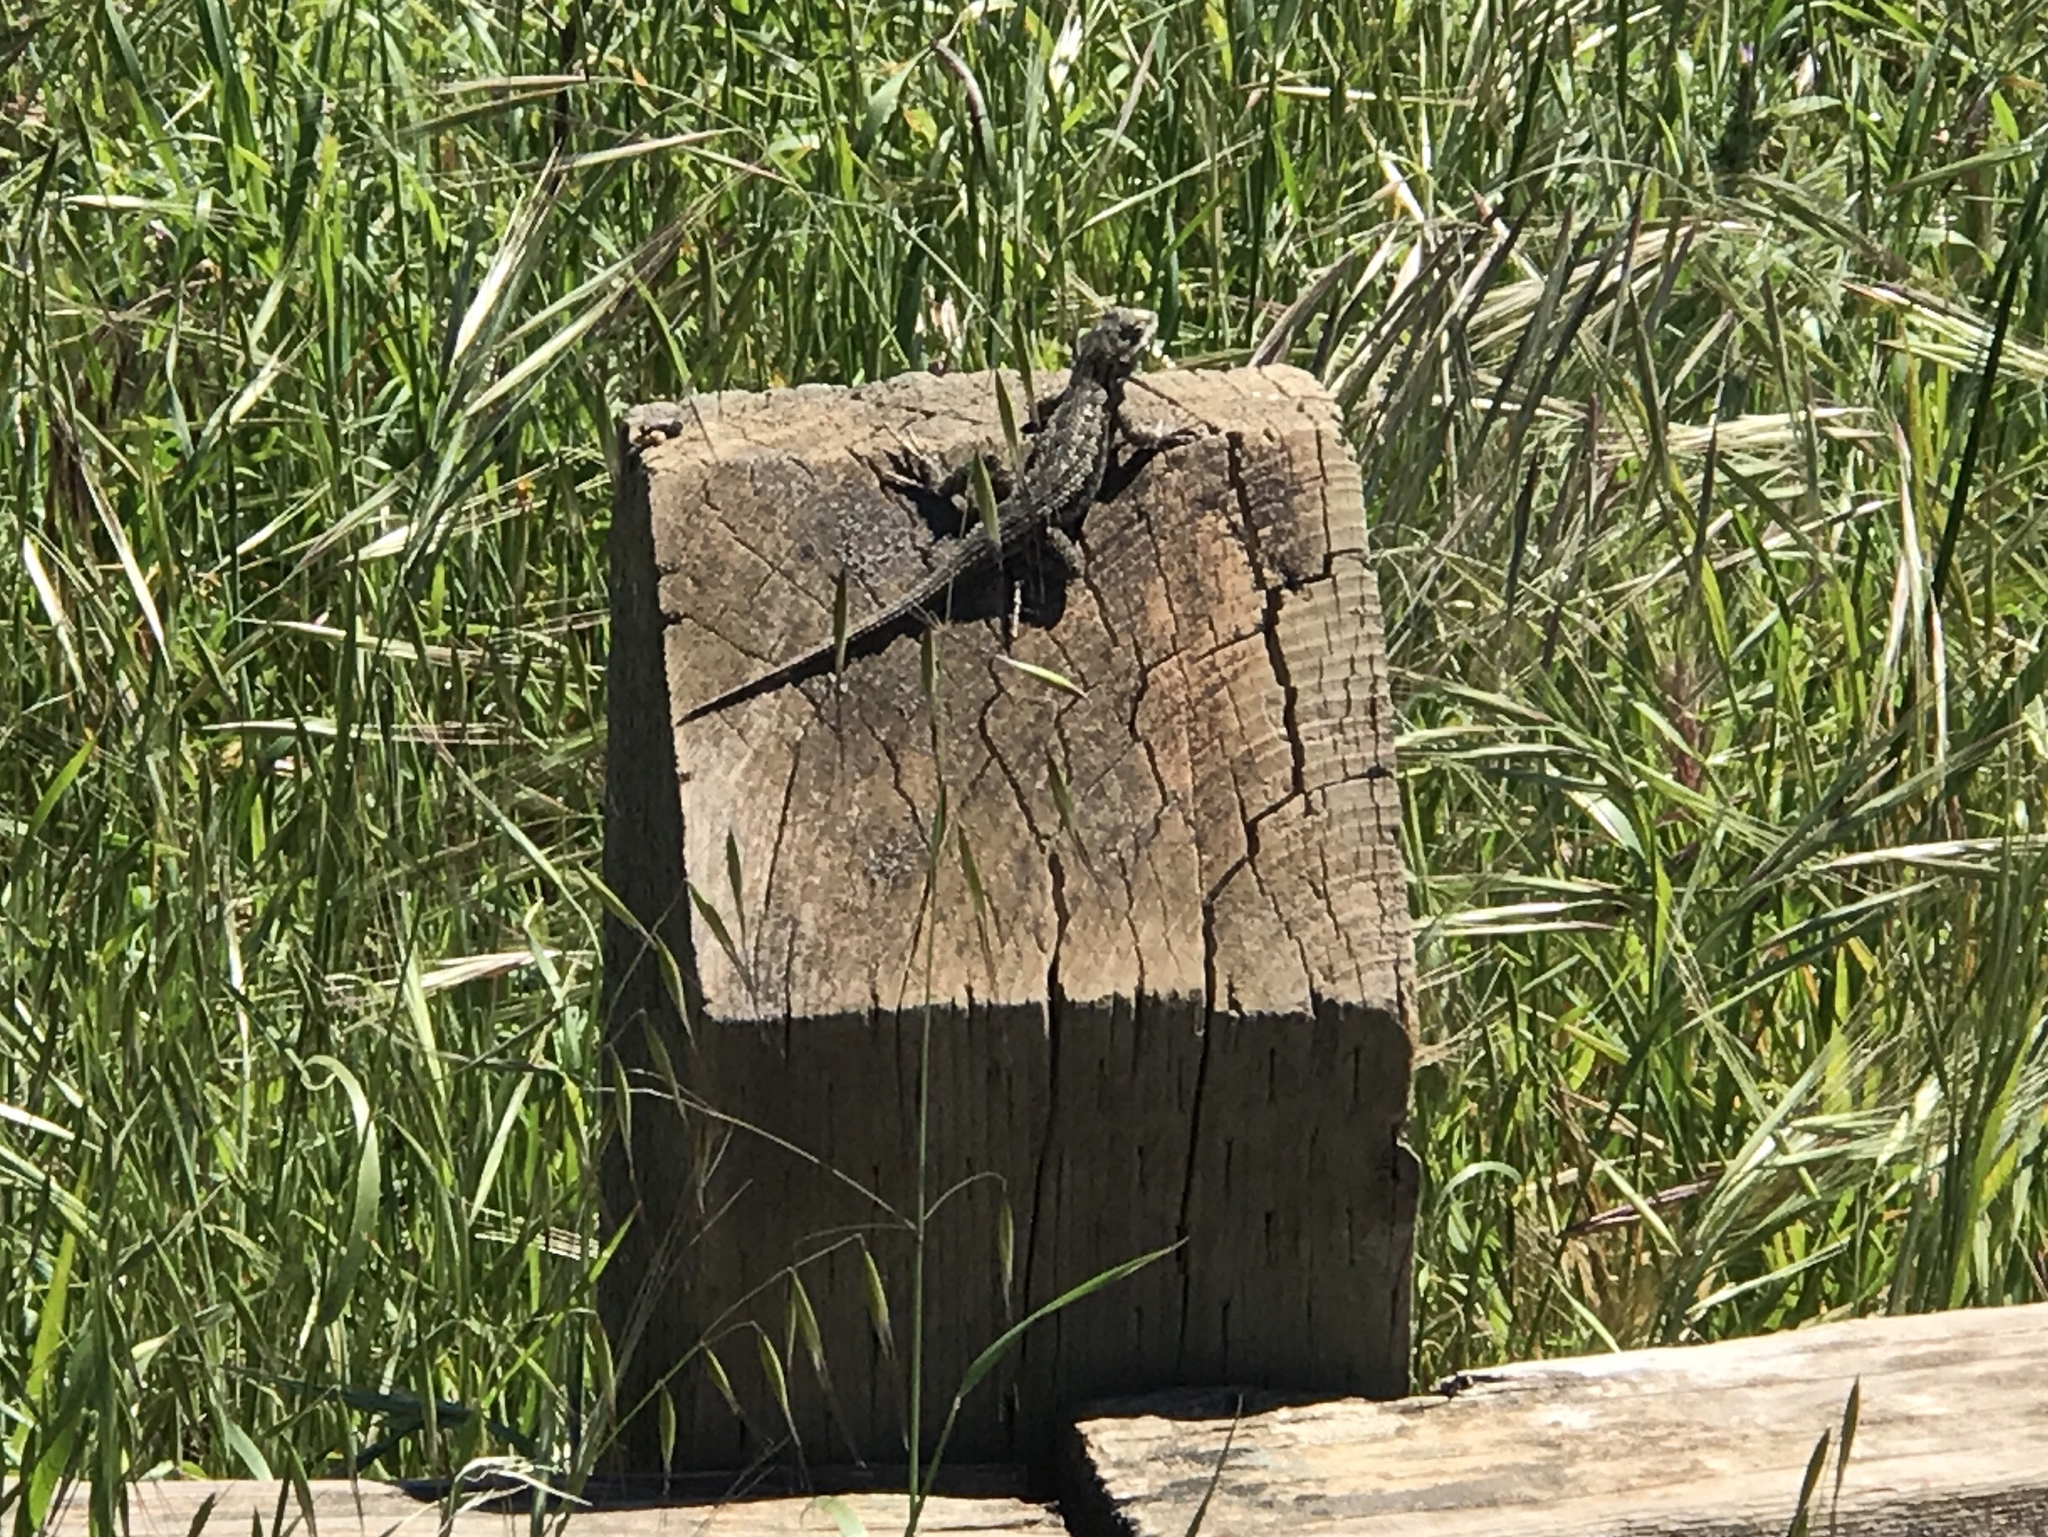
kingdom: Animalia
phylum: Chordata
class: Squamata
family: Phrynosomatidae
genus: Sceloporus
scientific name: Sceloporus occidentalis
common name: Western fence lizard
